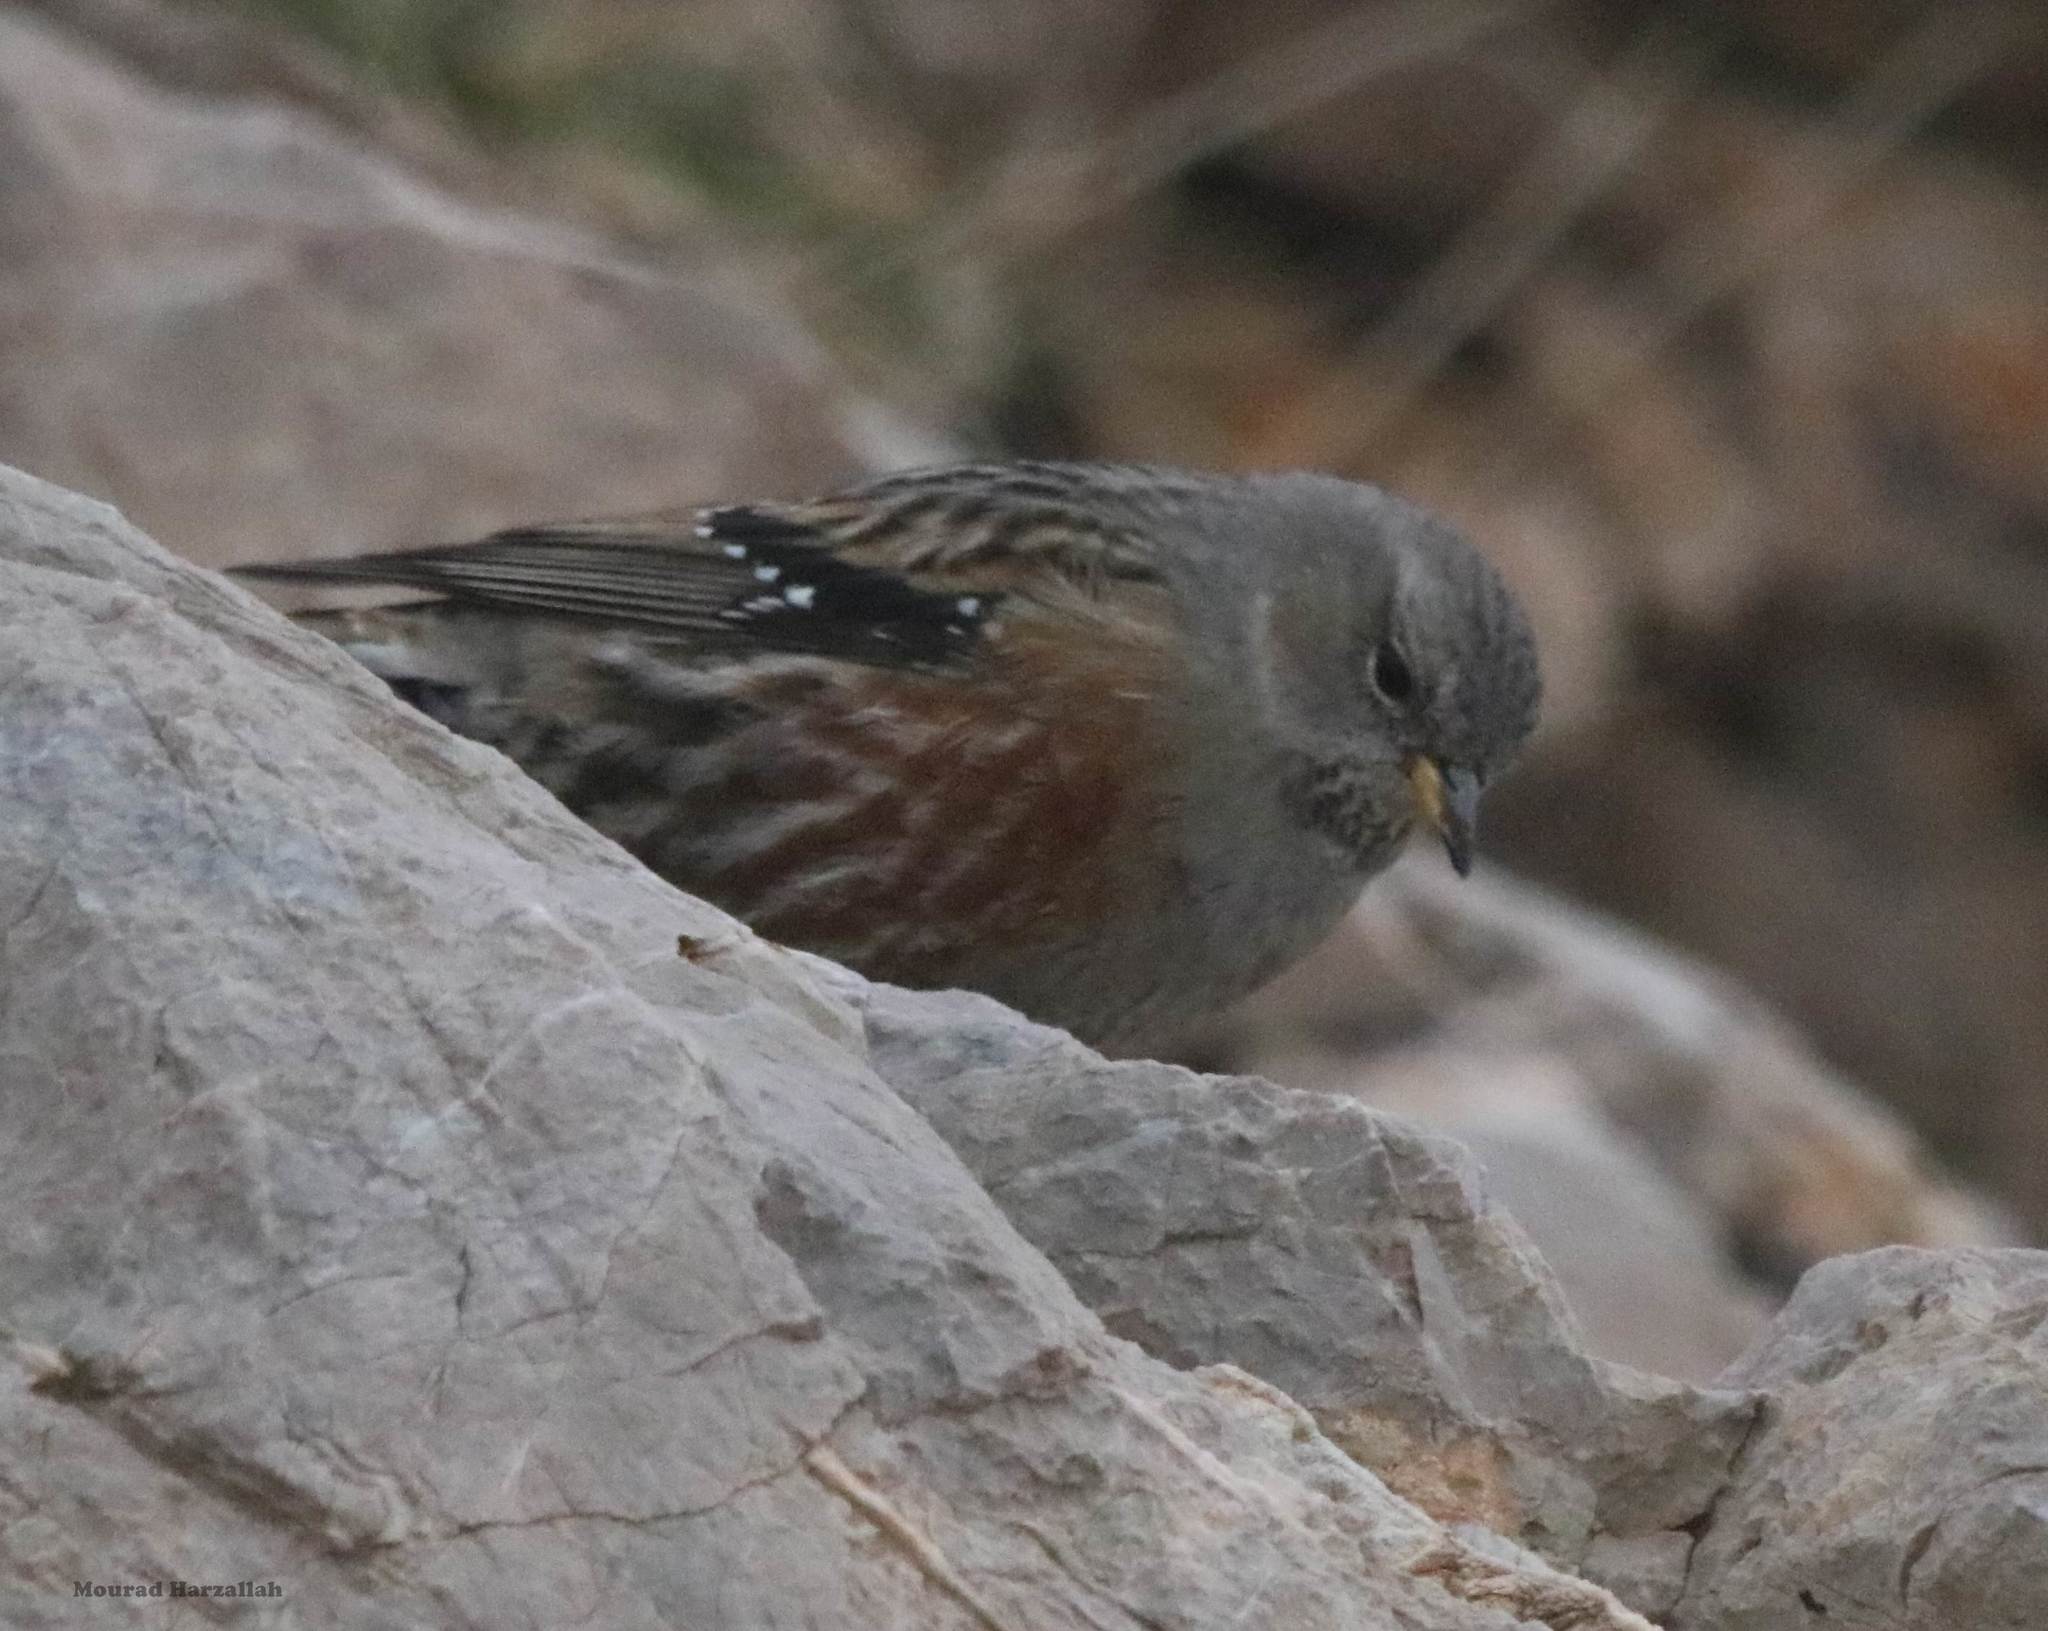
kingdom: Animalia
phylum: Chordata
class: Aves
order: Passeriformes
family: Prunellidae
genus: Prunella
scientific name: Prunella collaris
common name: Alpine accentor
